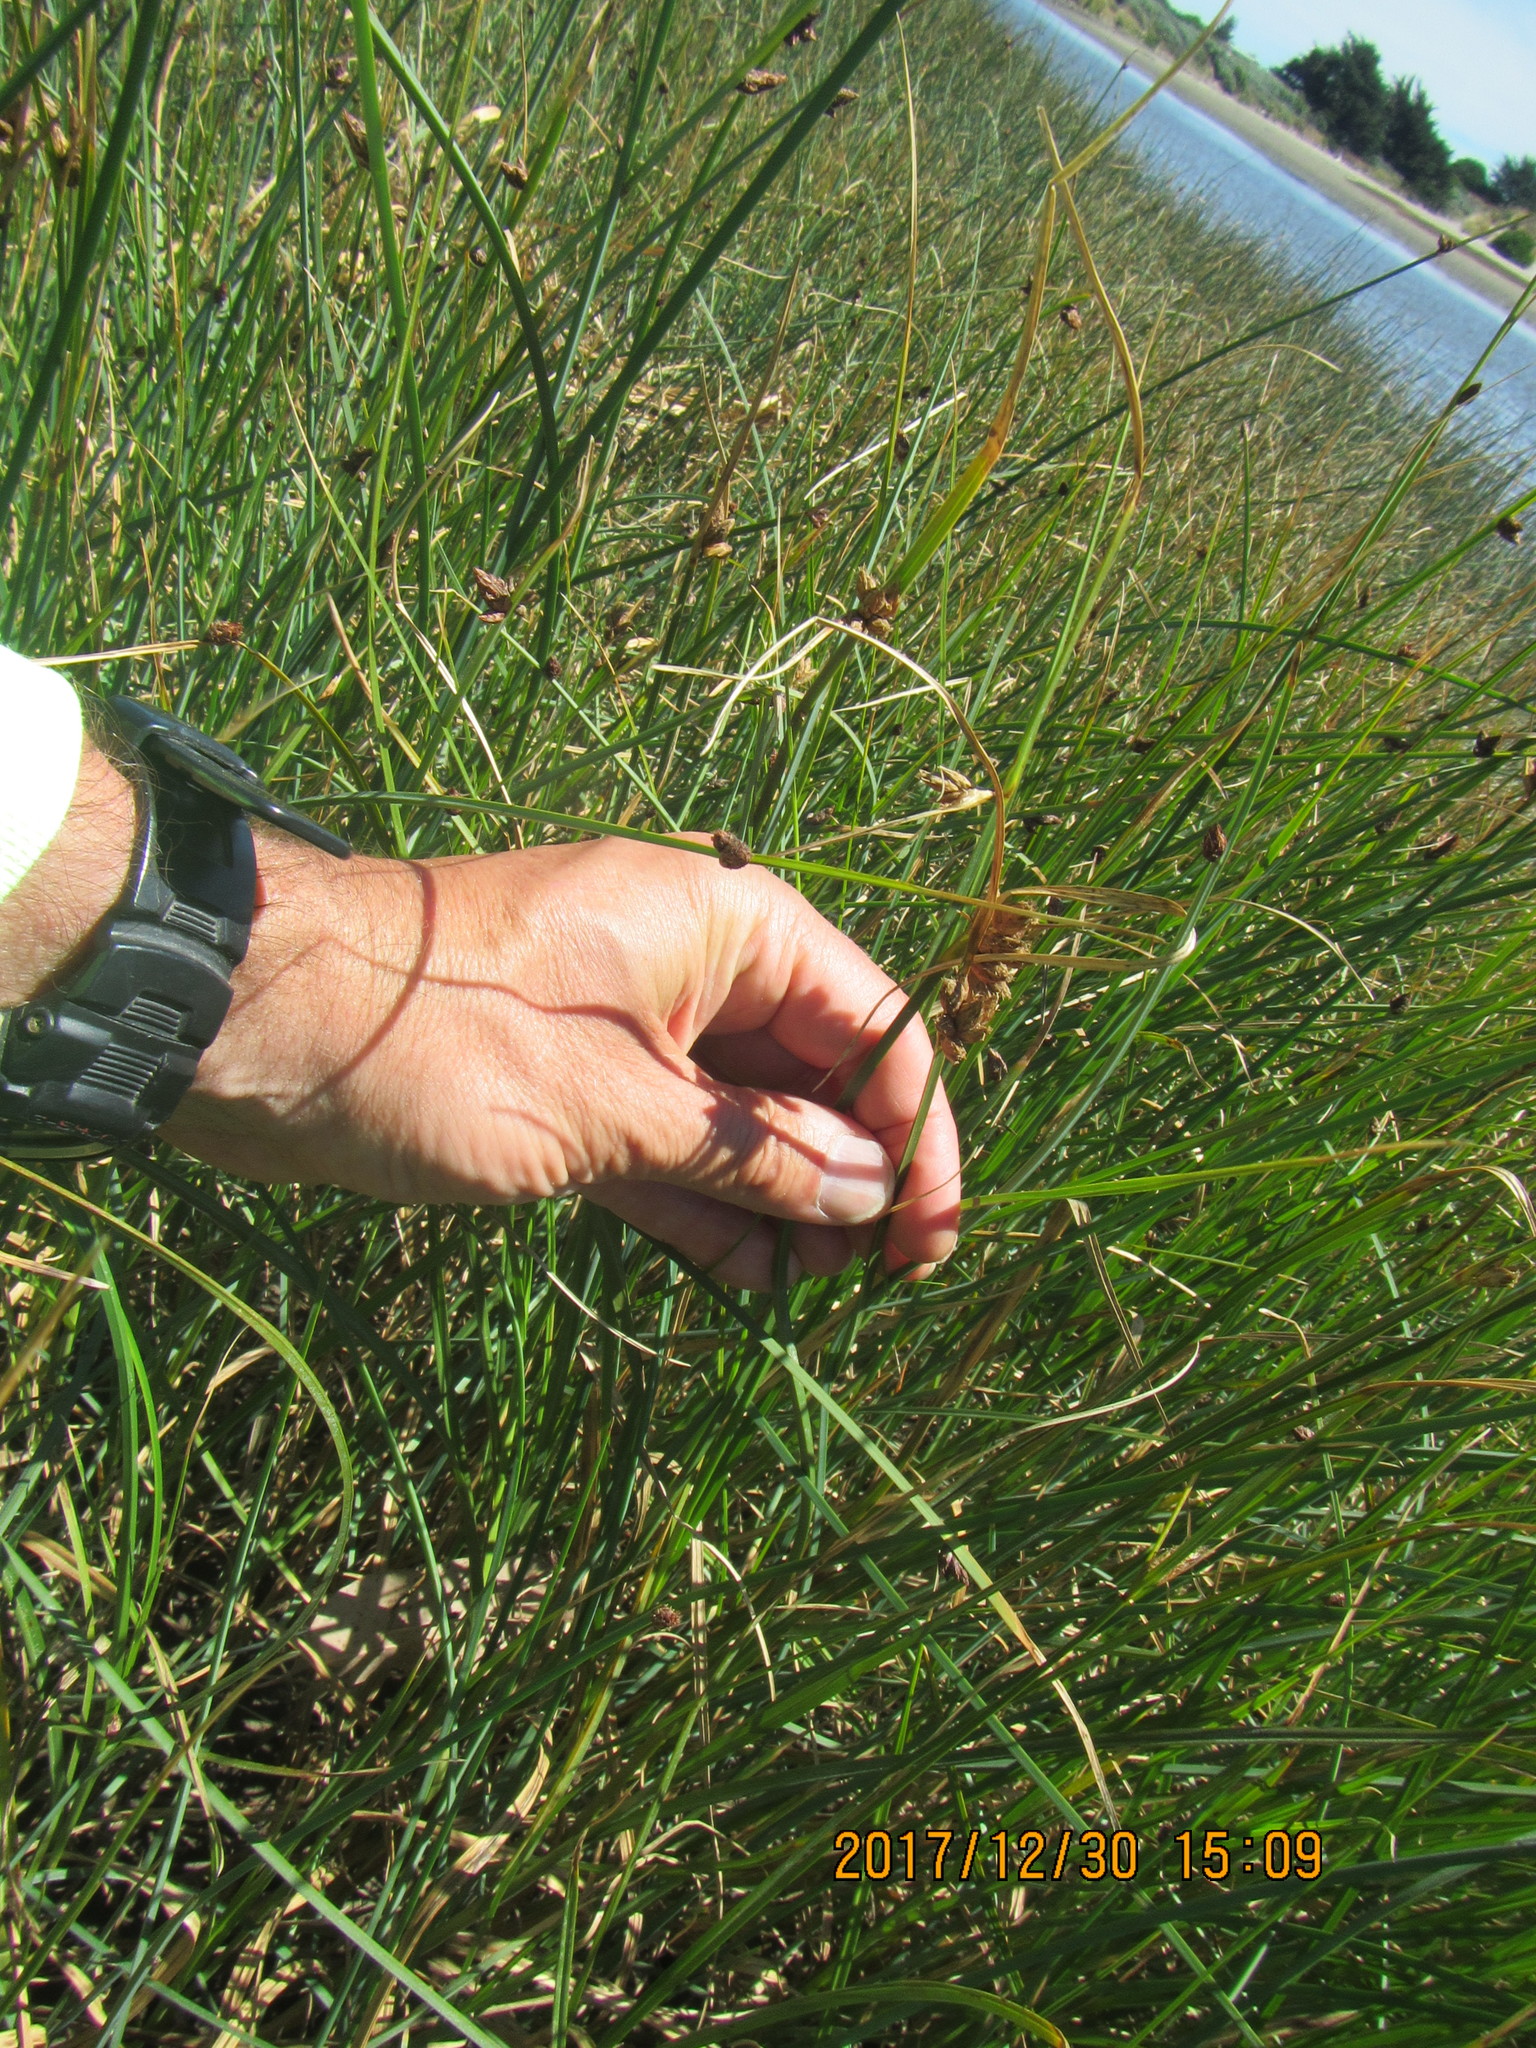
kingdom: Plantae
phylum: Tracheophyta
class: Liliopsida
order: Poales
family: Cyperaceae
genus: Schoenoplectus
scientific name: Schoenoplectus pungens
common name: Sharp club-rush
